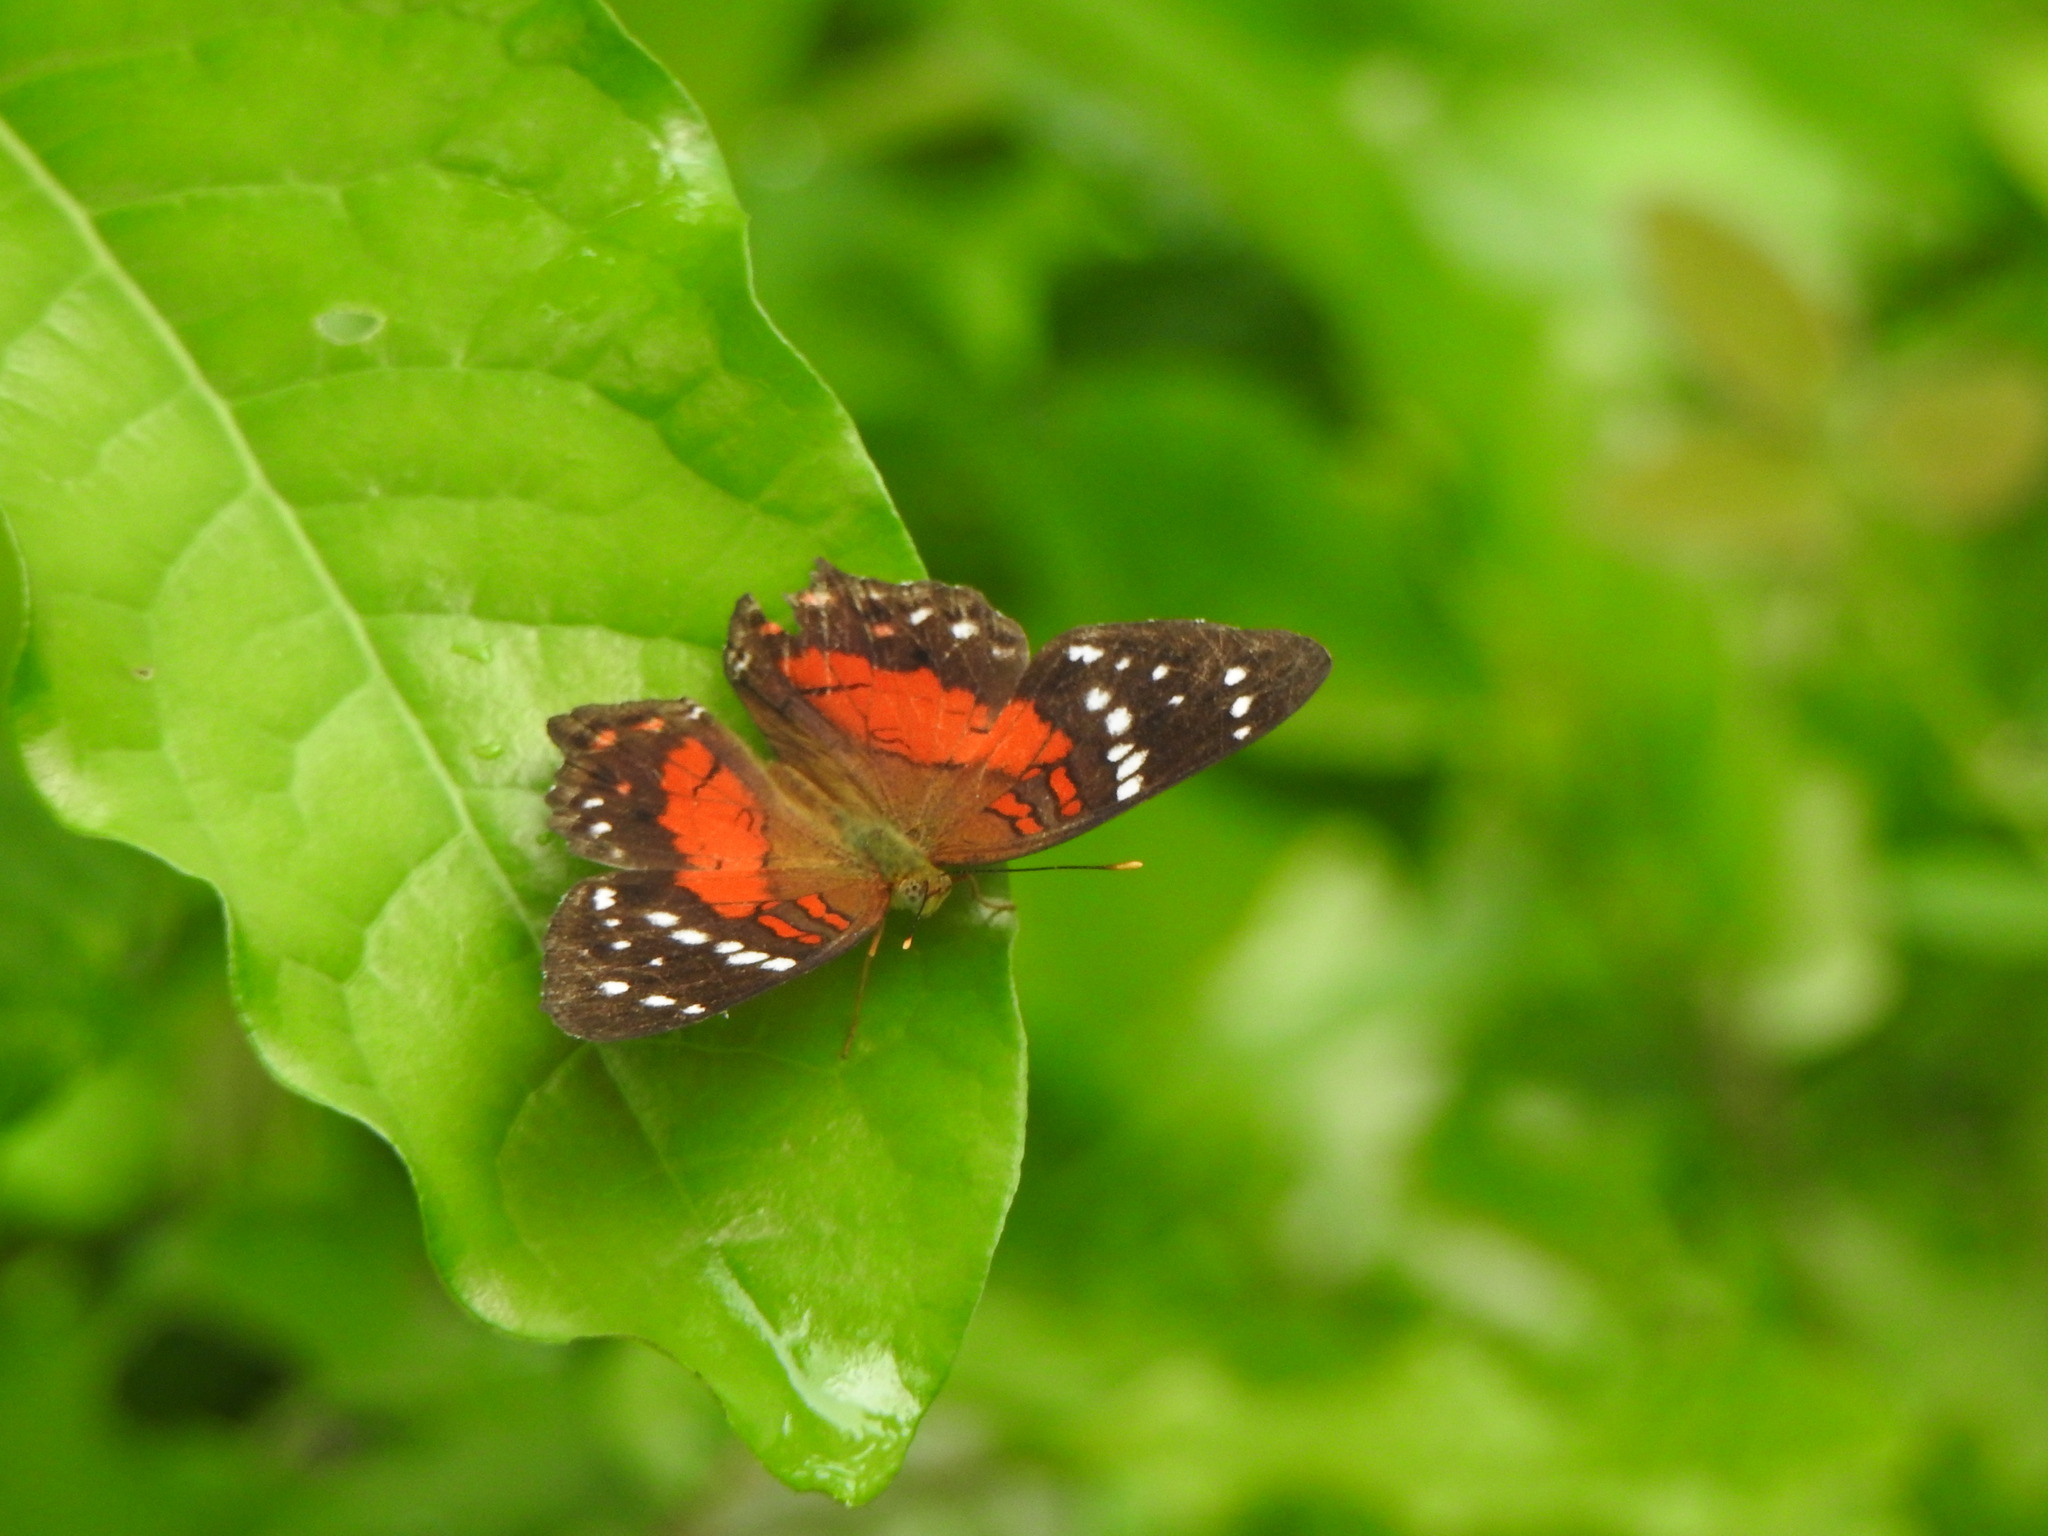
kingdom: Animalia
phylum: Arthropoda
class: Insecta
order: Lepidoptera
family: Nymphalidae
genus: Anartia
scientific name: Anartia amathea
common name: Red peacock
